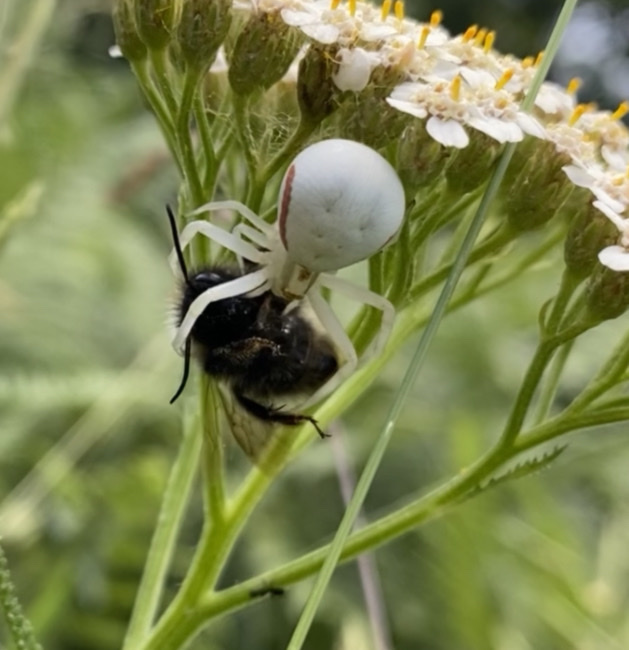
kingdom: Animalia
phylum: Arthropoda
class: Arachnida
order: Araneae
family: Thomisidae
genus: Misumena
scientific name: Misumena vatia
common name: Goldenrod crab spider
